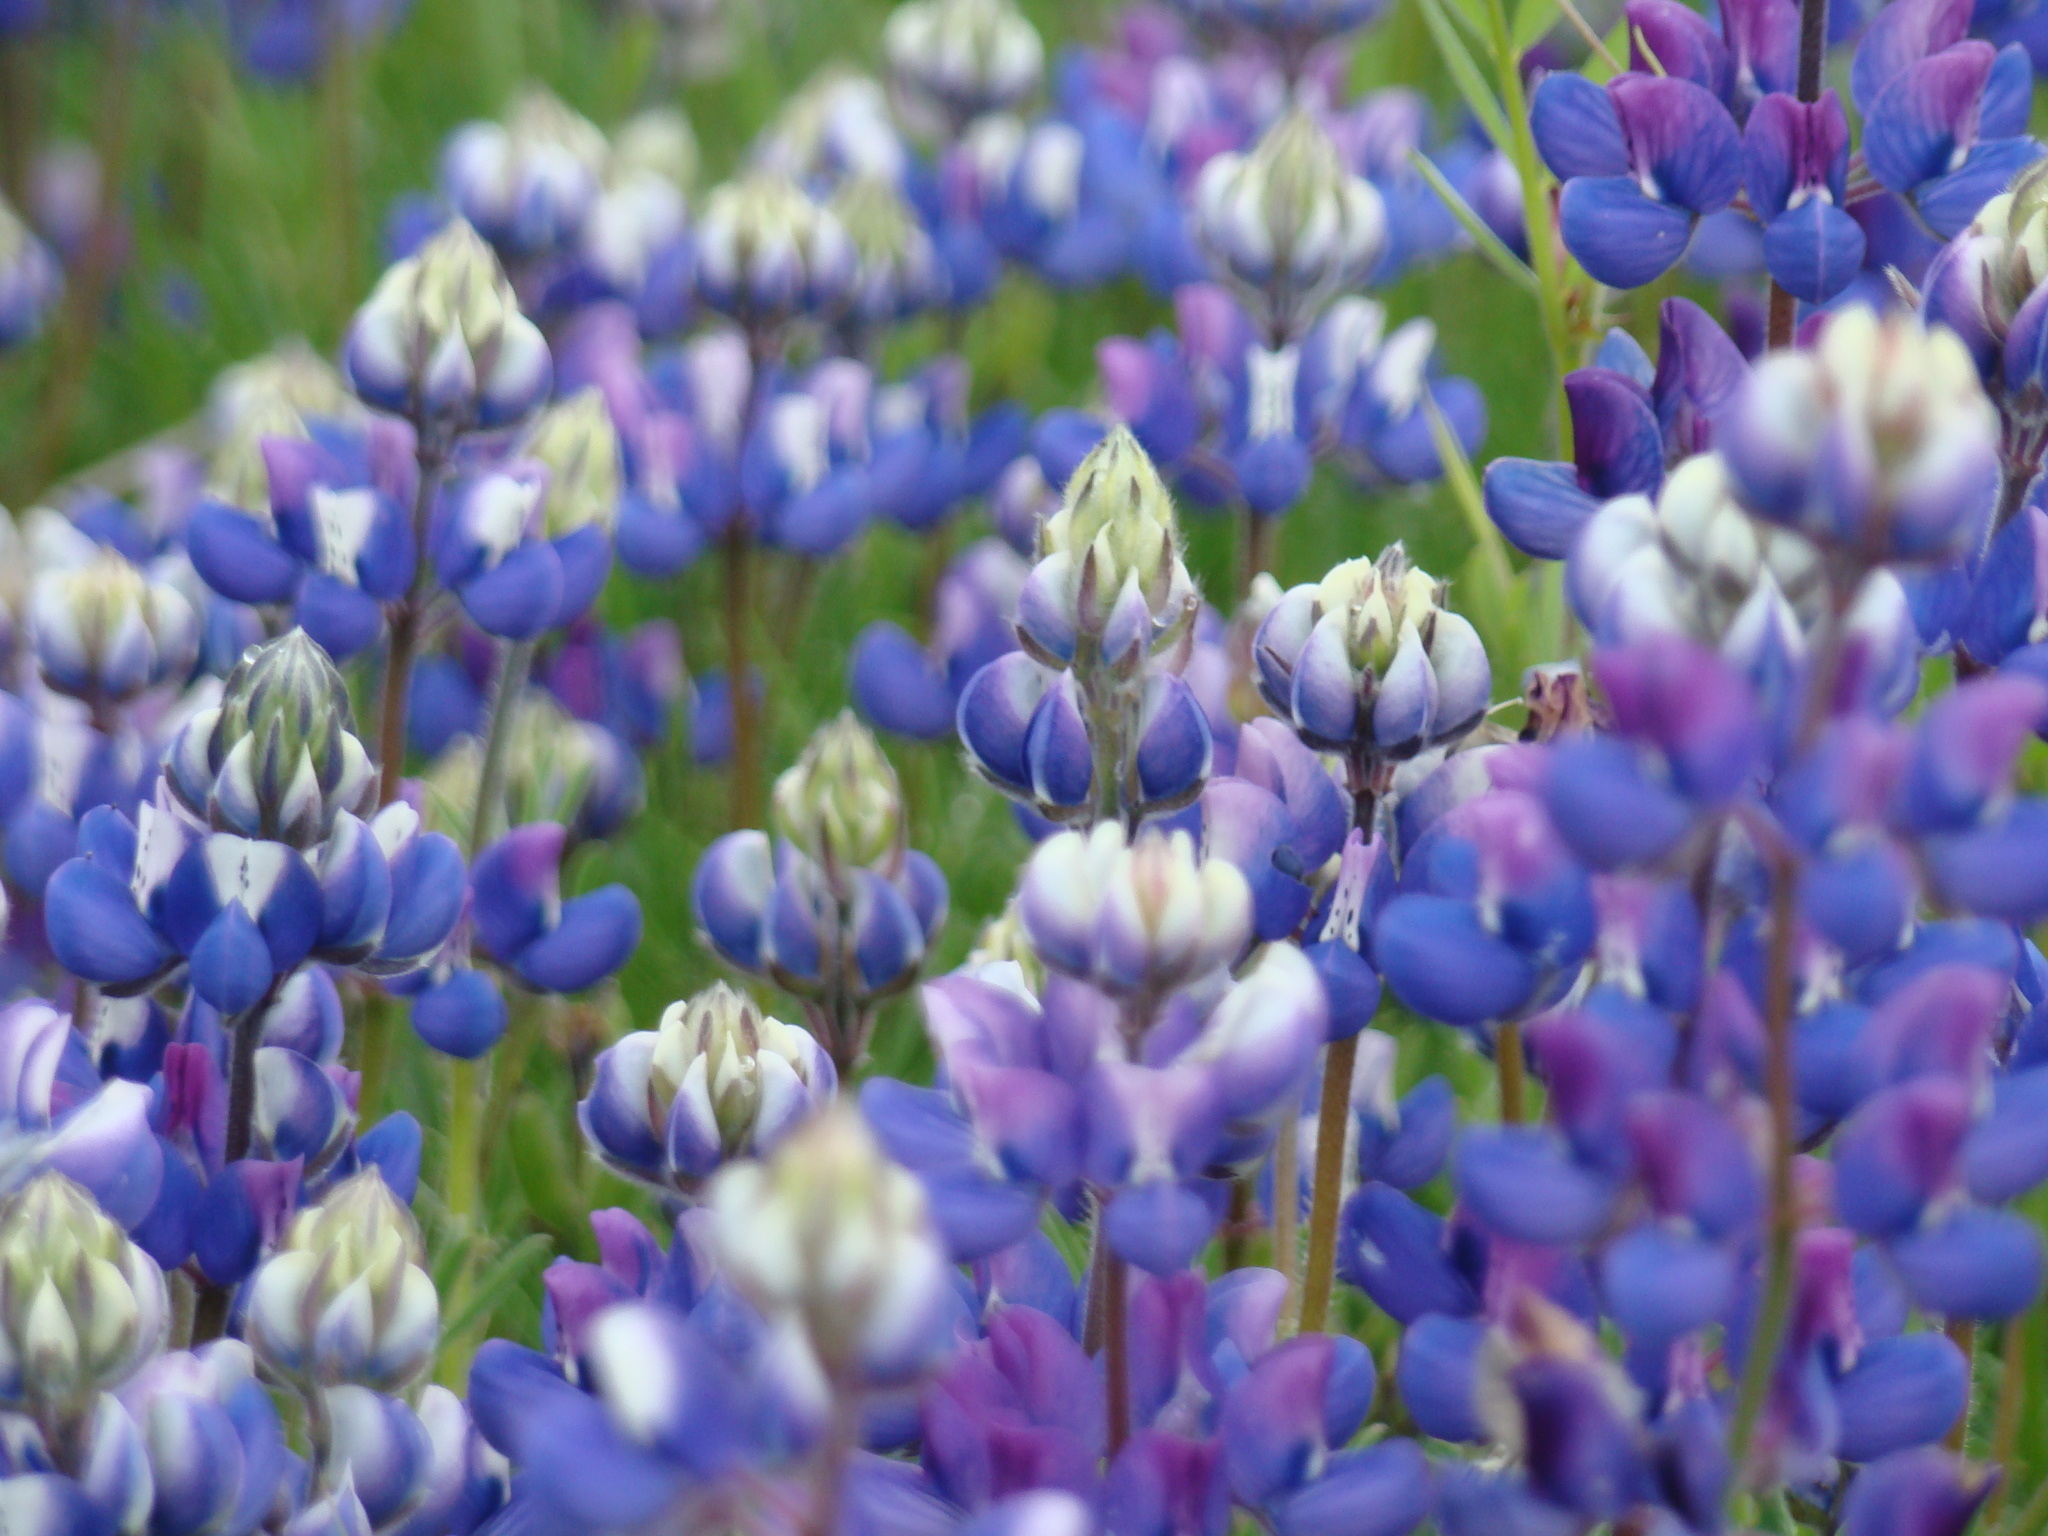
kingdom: Plantae
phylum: Tracheophyta
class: Magnoliopsida
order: Fabales
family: Fabaceae
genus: Lupinus
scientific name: Lupinus nanus
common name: Orean blue lupin
